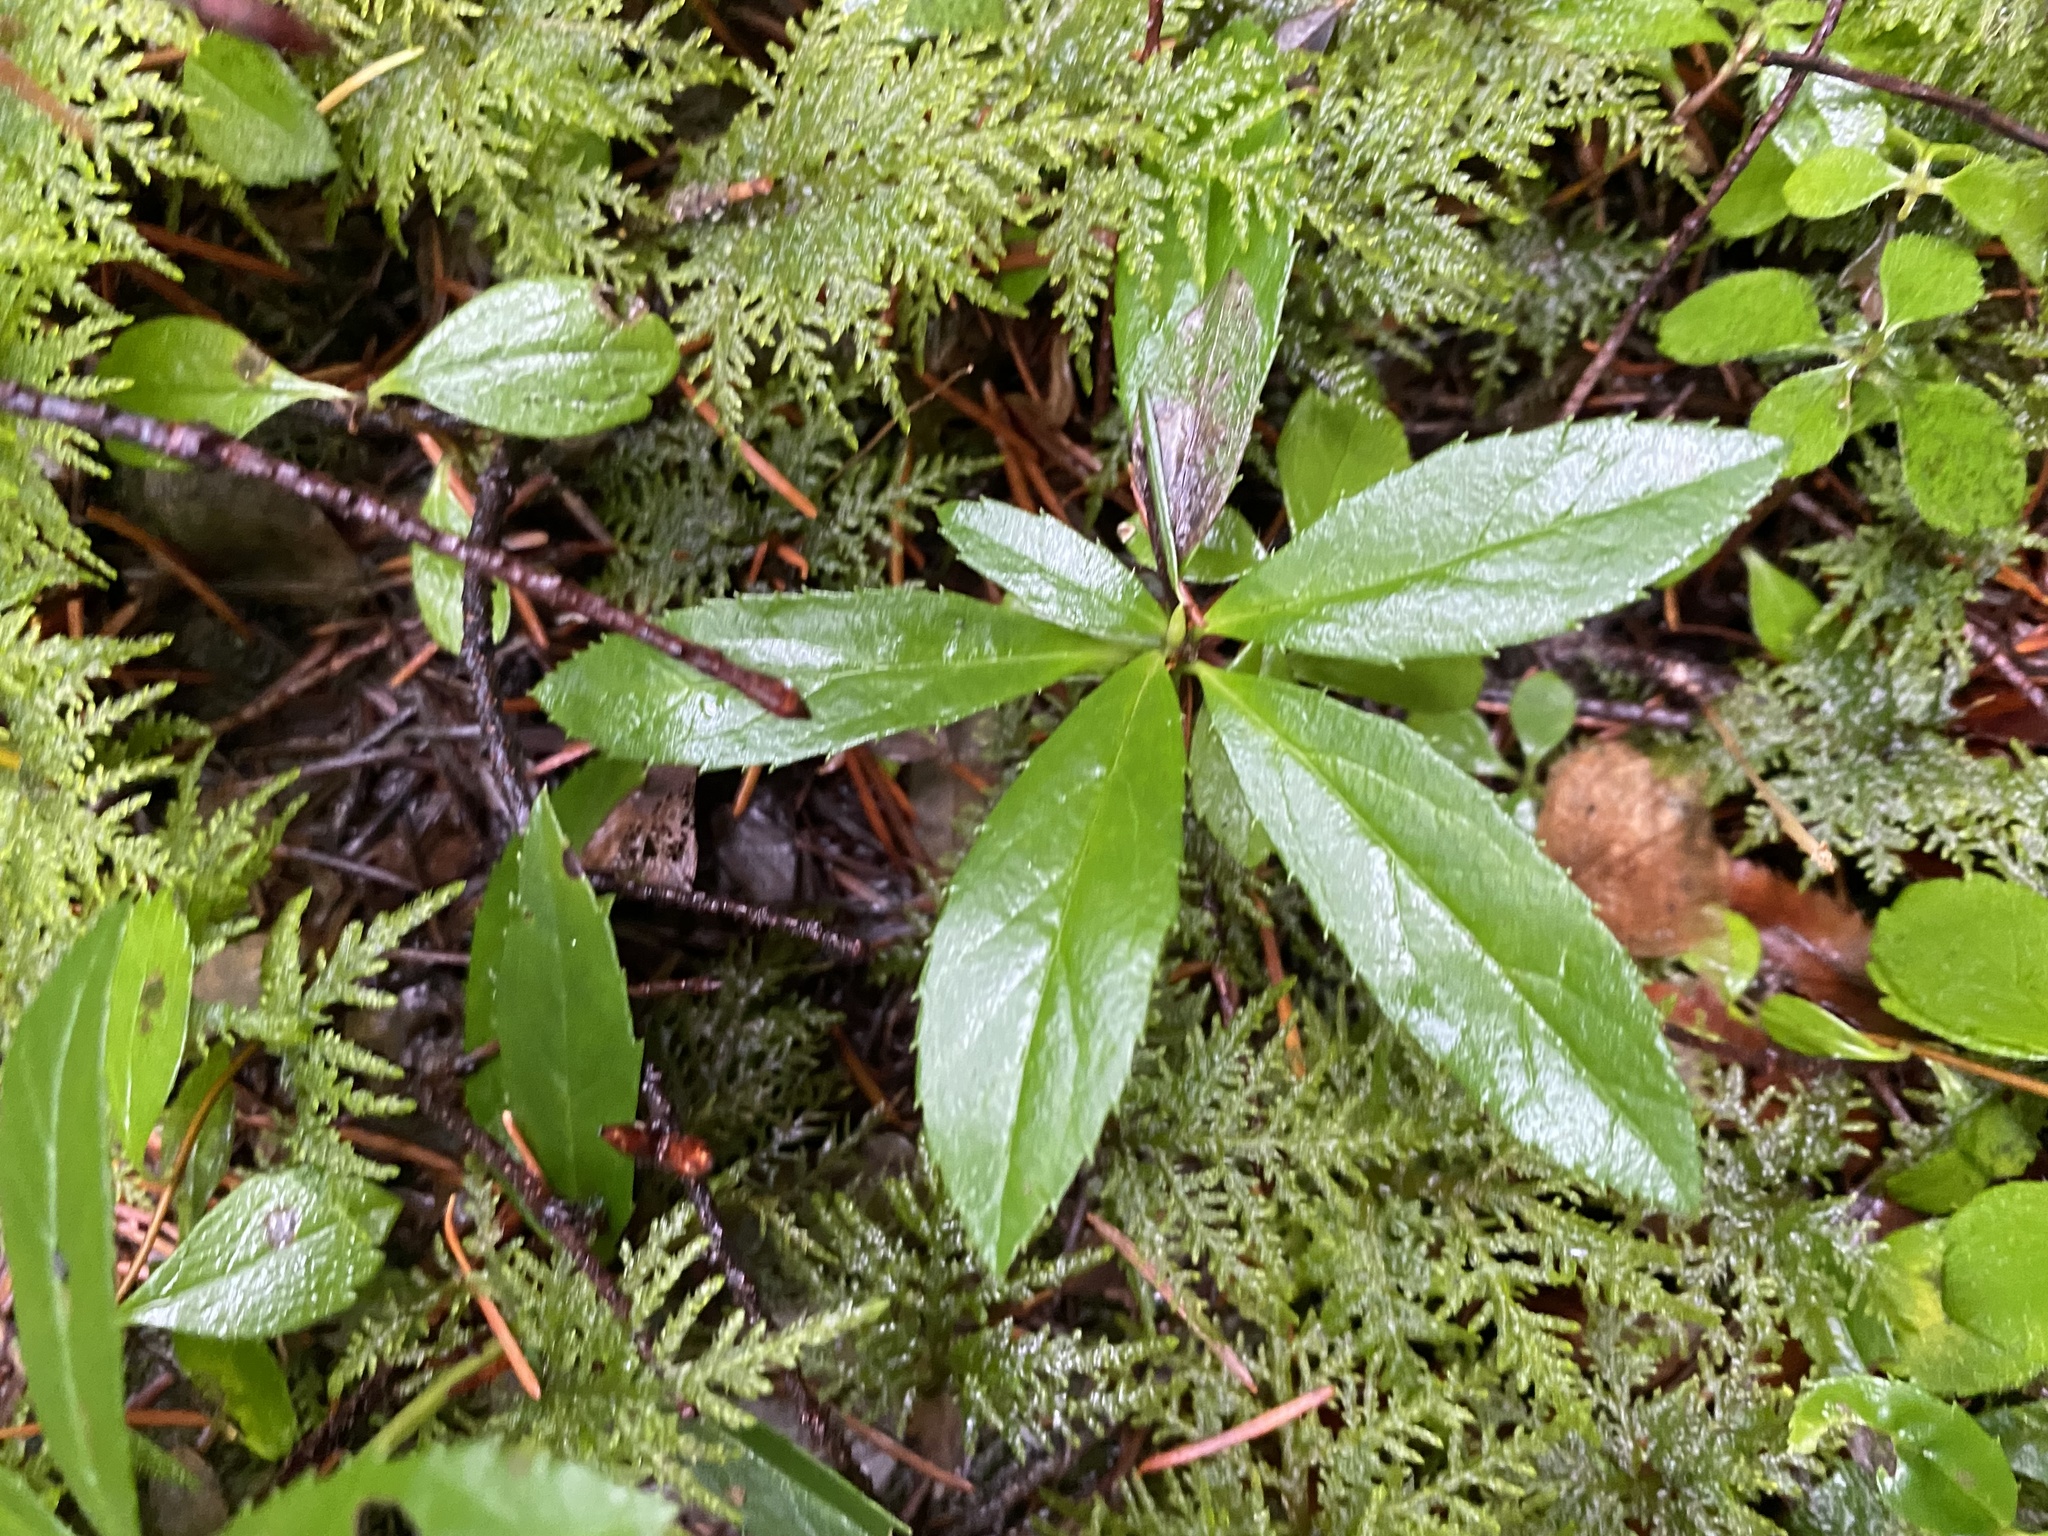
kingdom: Plantae
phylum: Tracheophyta
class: Magnoliopsida
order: Ericales
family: Ericaceae
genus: Chimaphila
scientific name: Chimaphila umbellata
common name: Pipsissewa
